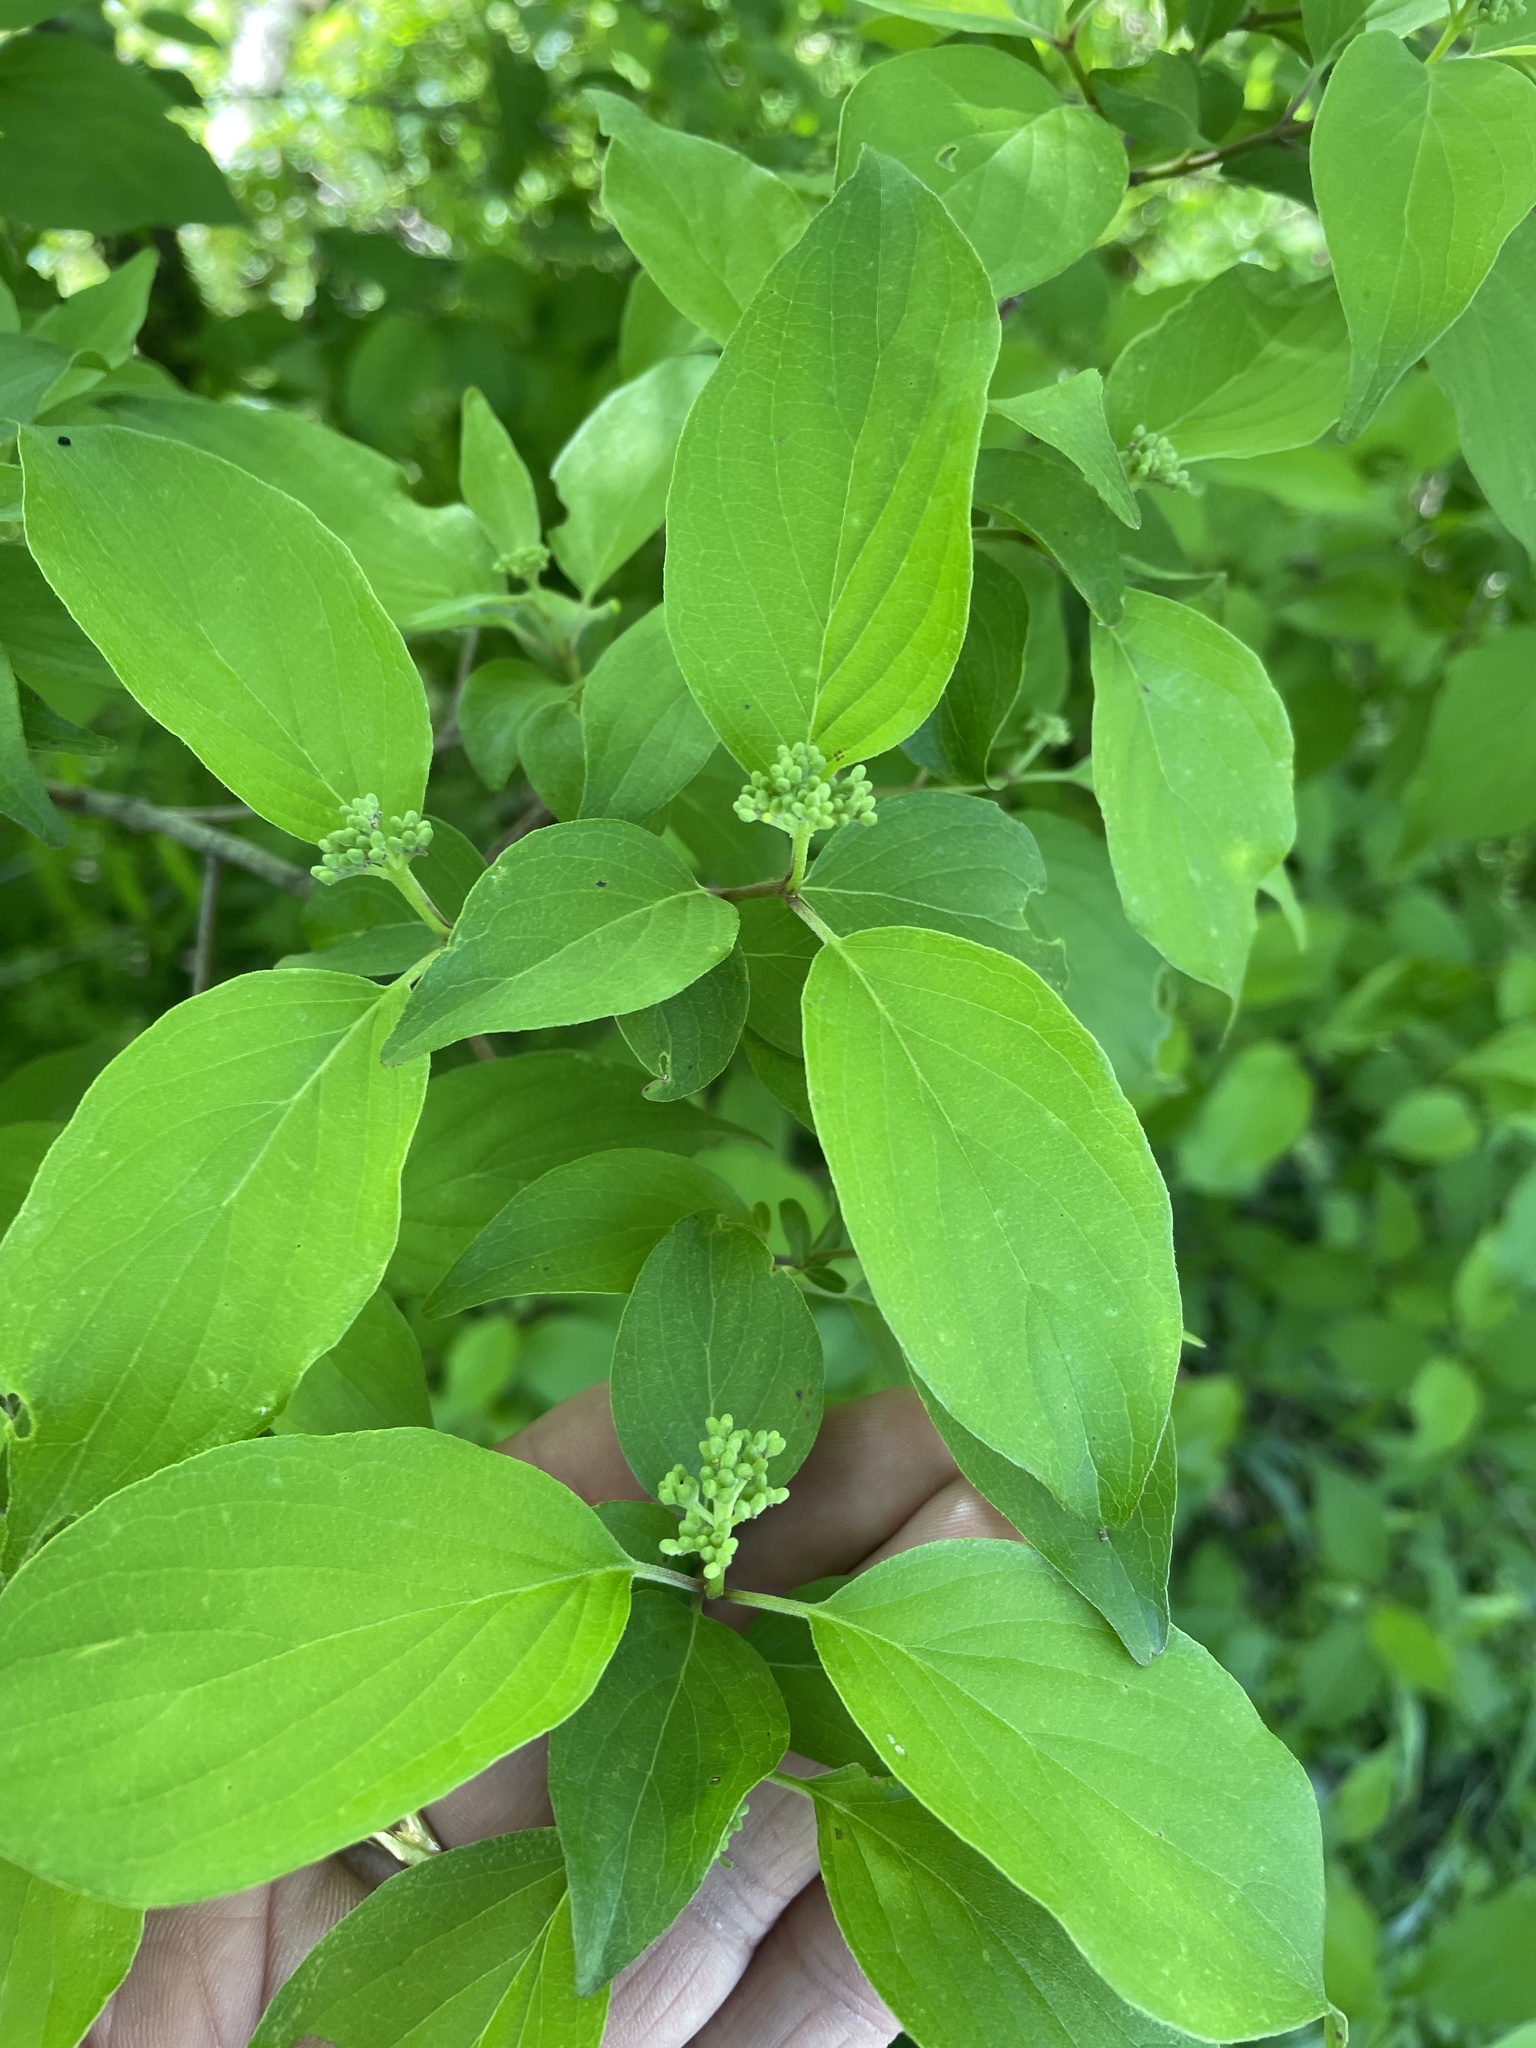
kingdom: Plantae
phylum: Tracheophyta
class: Magnoliopsida
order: Cornales
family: Cornaceae
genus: Cornus
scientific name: Cornus drummondii
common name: Rough-leaf dogwood
